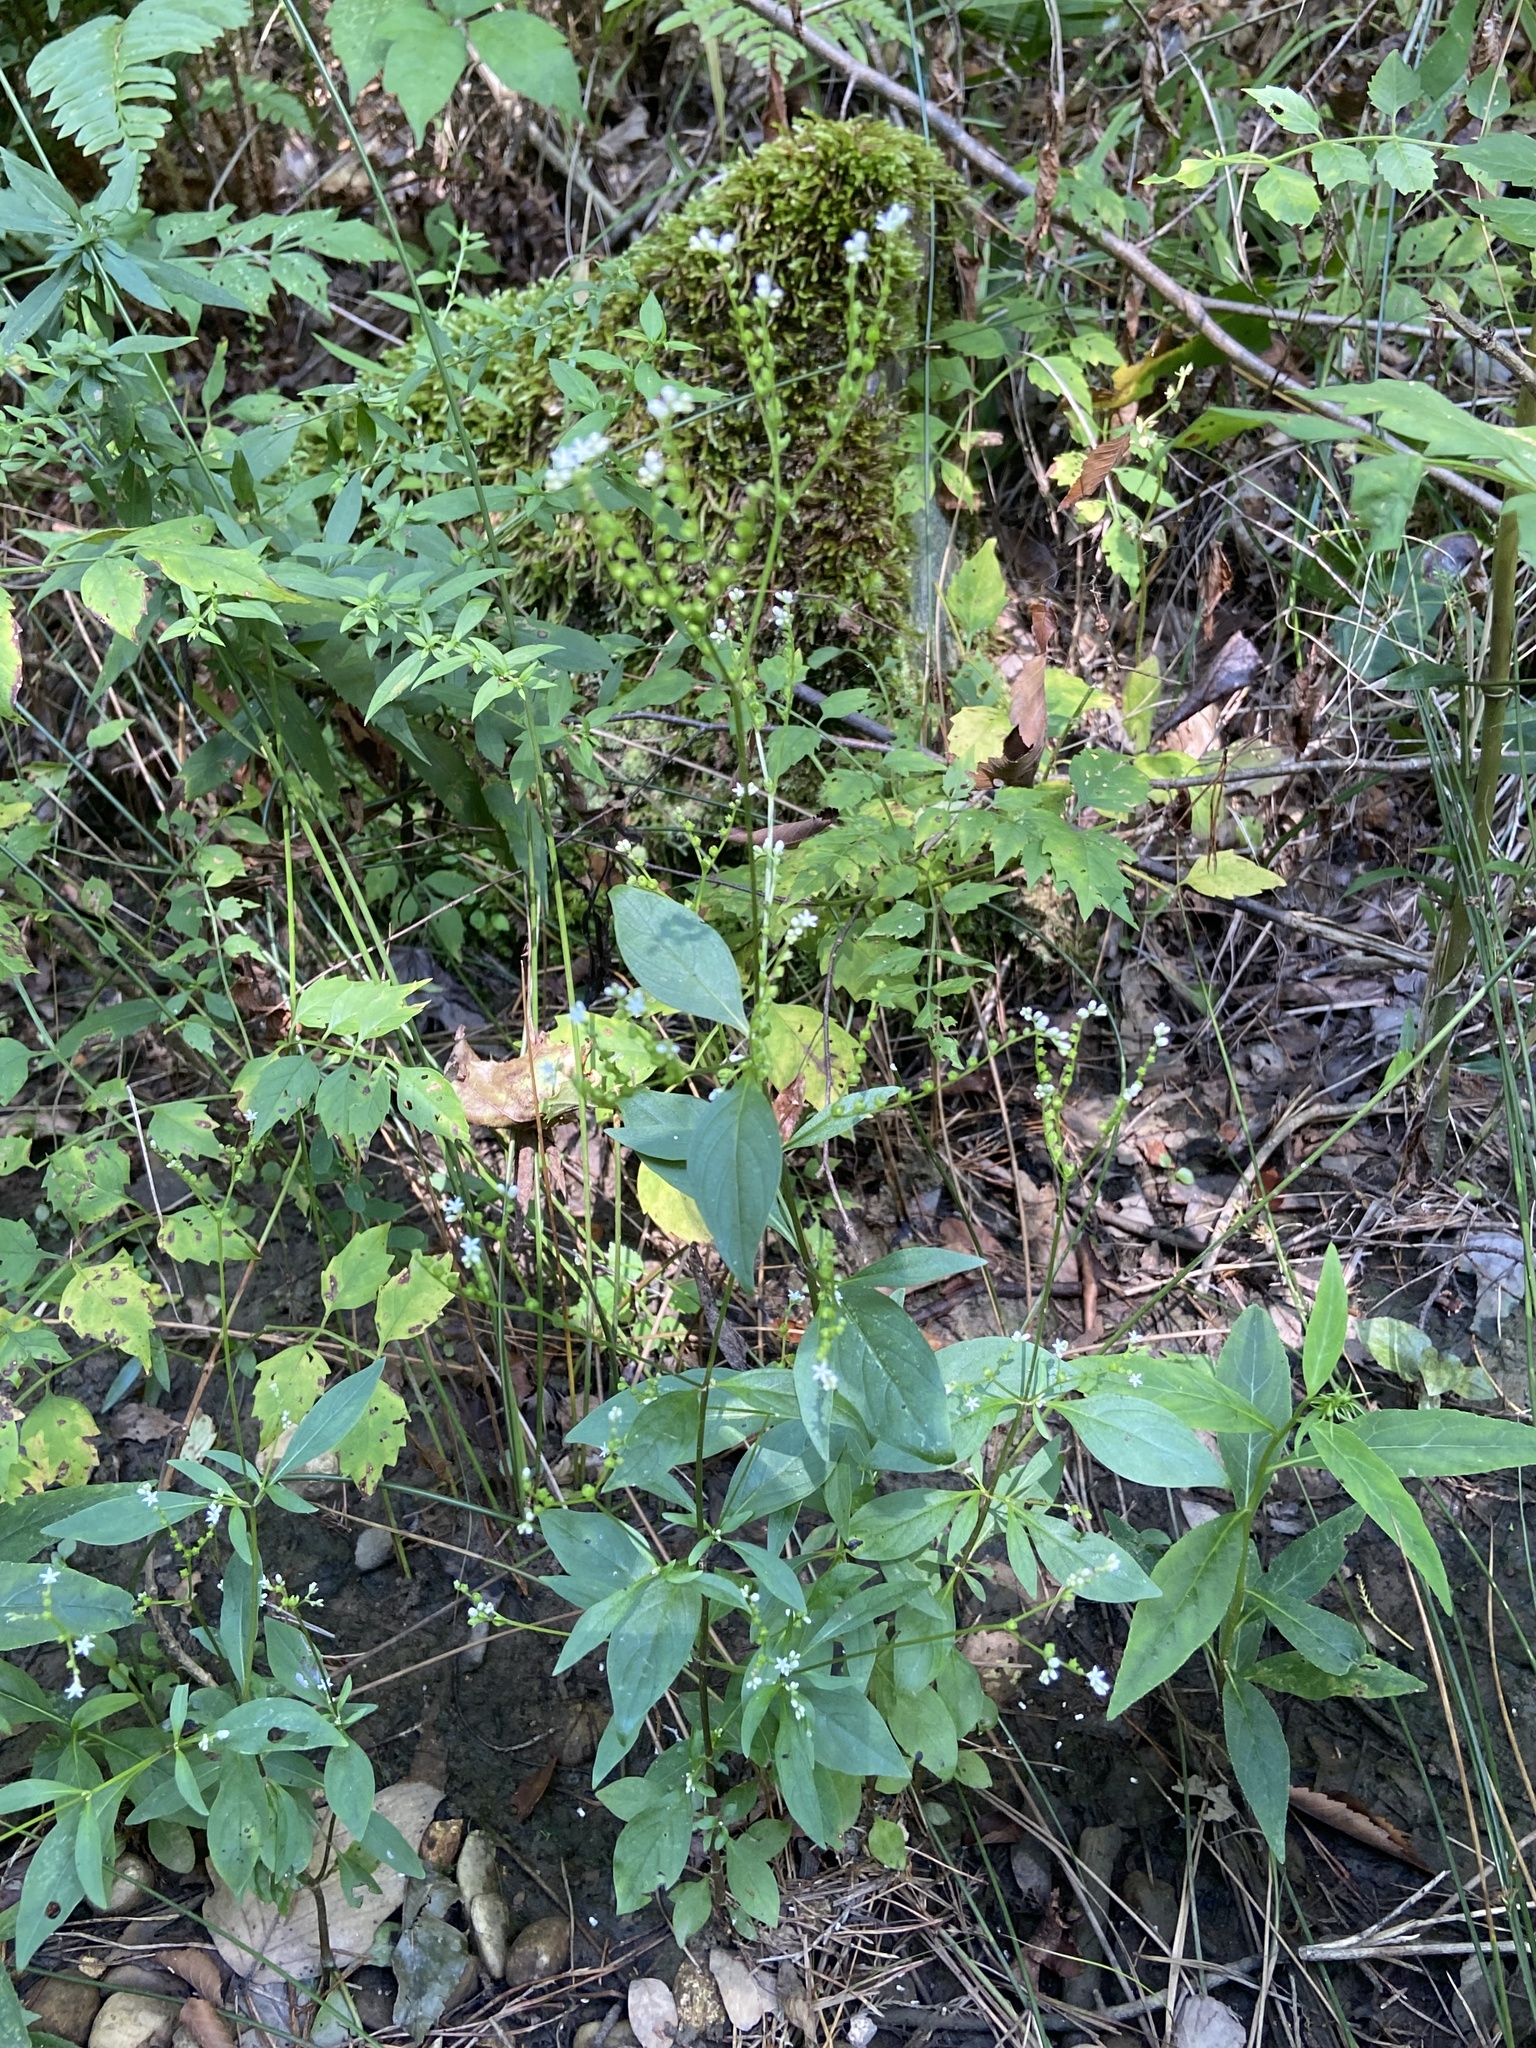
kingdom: Plantae
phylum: Tracheophyta
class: Magnoliopsida
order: Gentianales
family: Loganiaceae
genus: Mitreola
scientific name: Mitreola petiolata
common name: Lax hornpod
